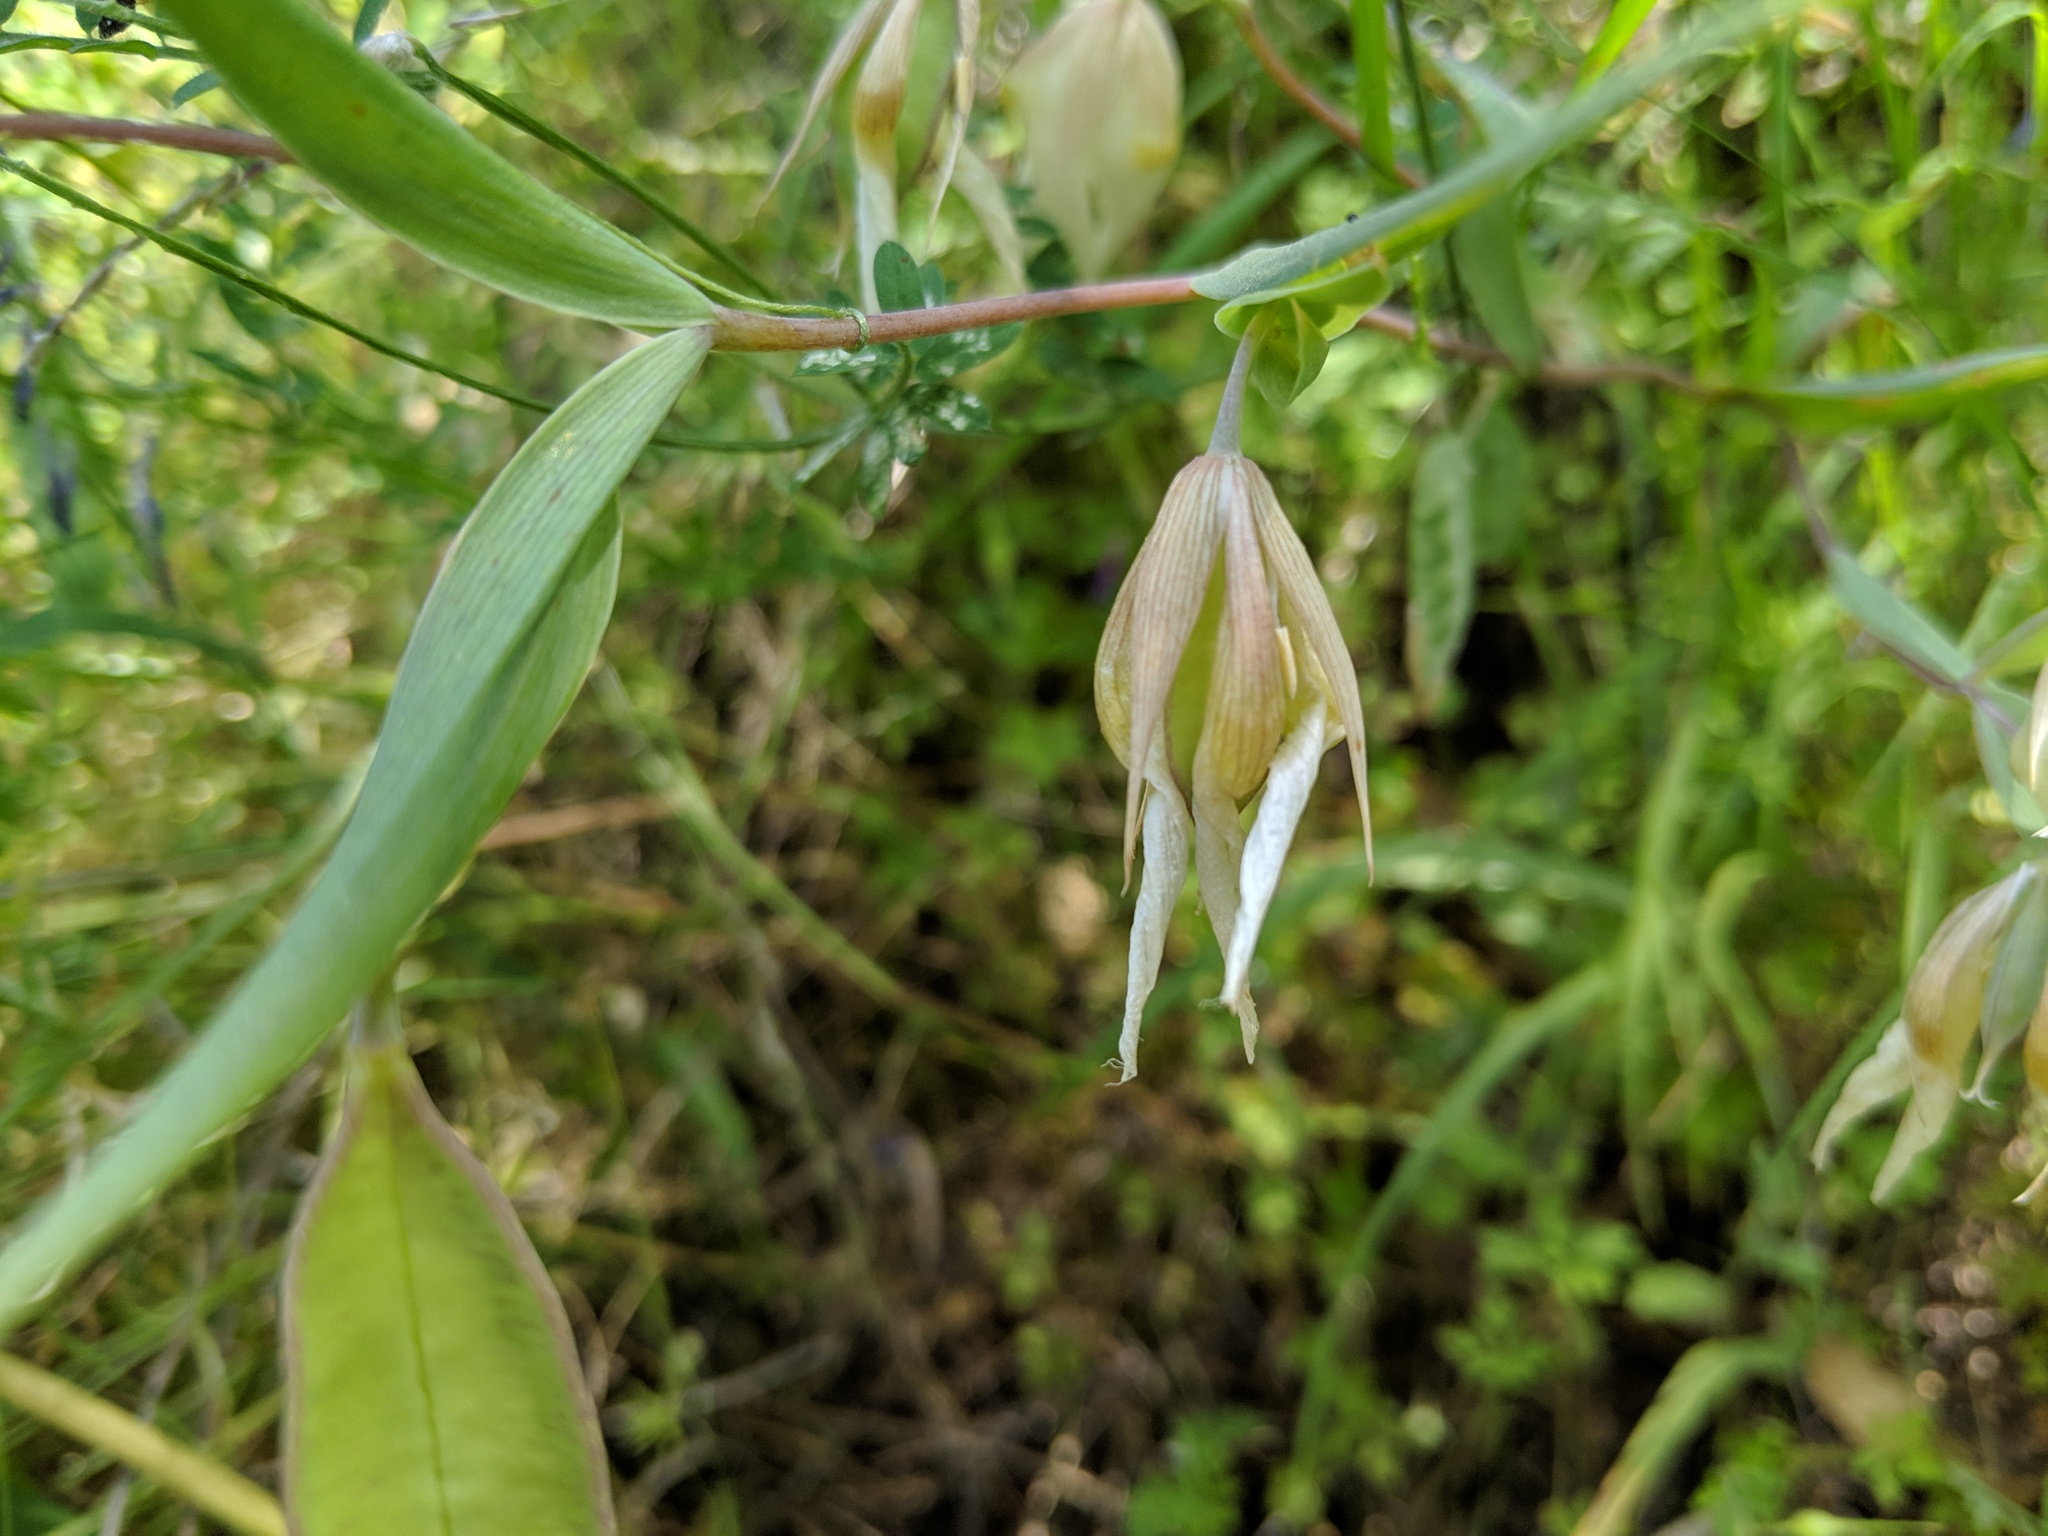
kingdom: Plantae
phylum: Tracheophyta
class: Liliopsida
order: Liliales
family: Liliaceae
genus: Calochortus
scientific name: Calochortus albus
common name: Fairy-lantern
